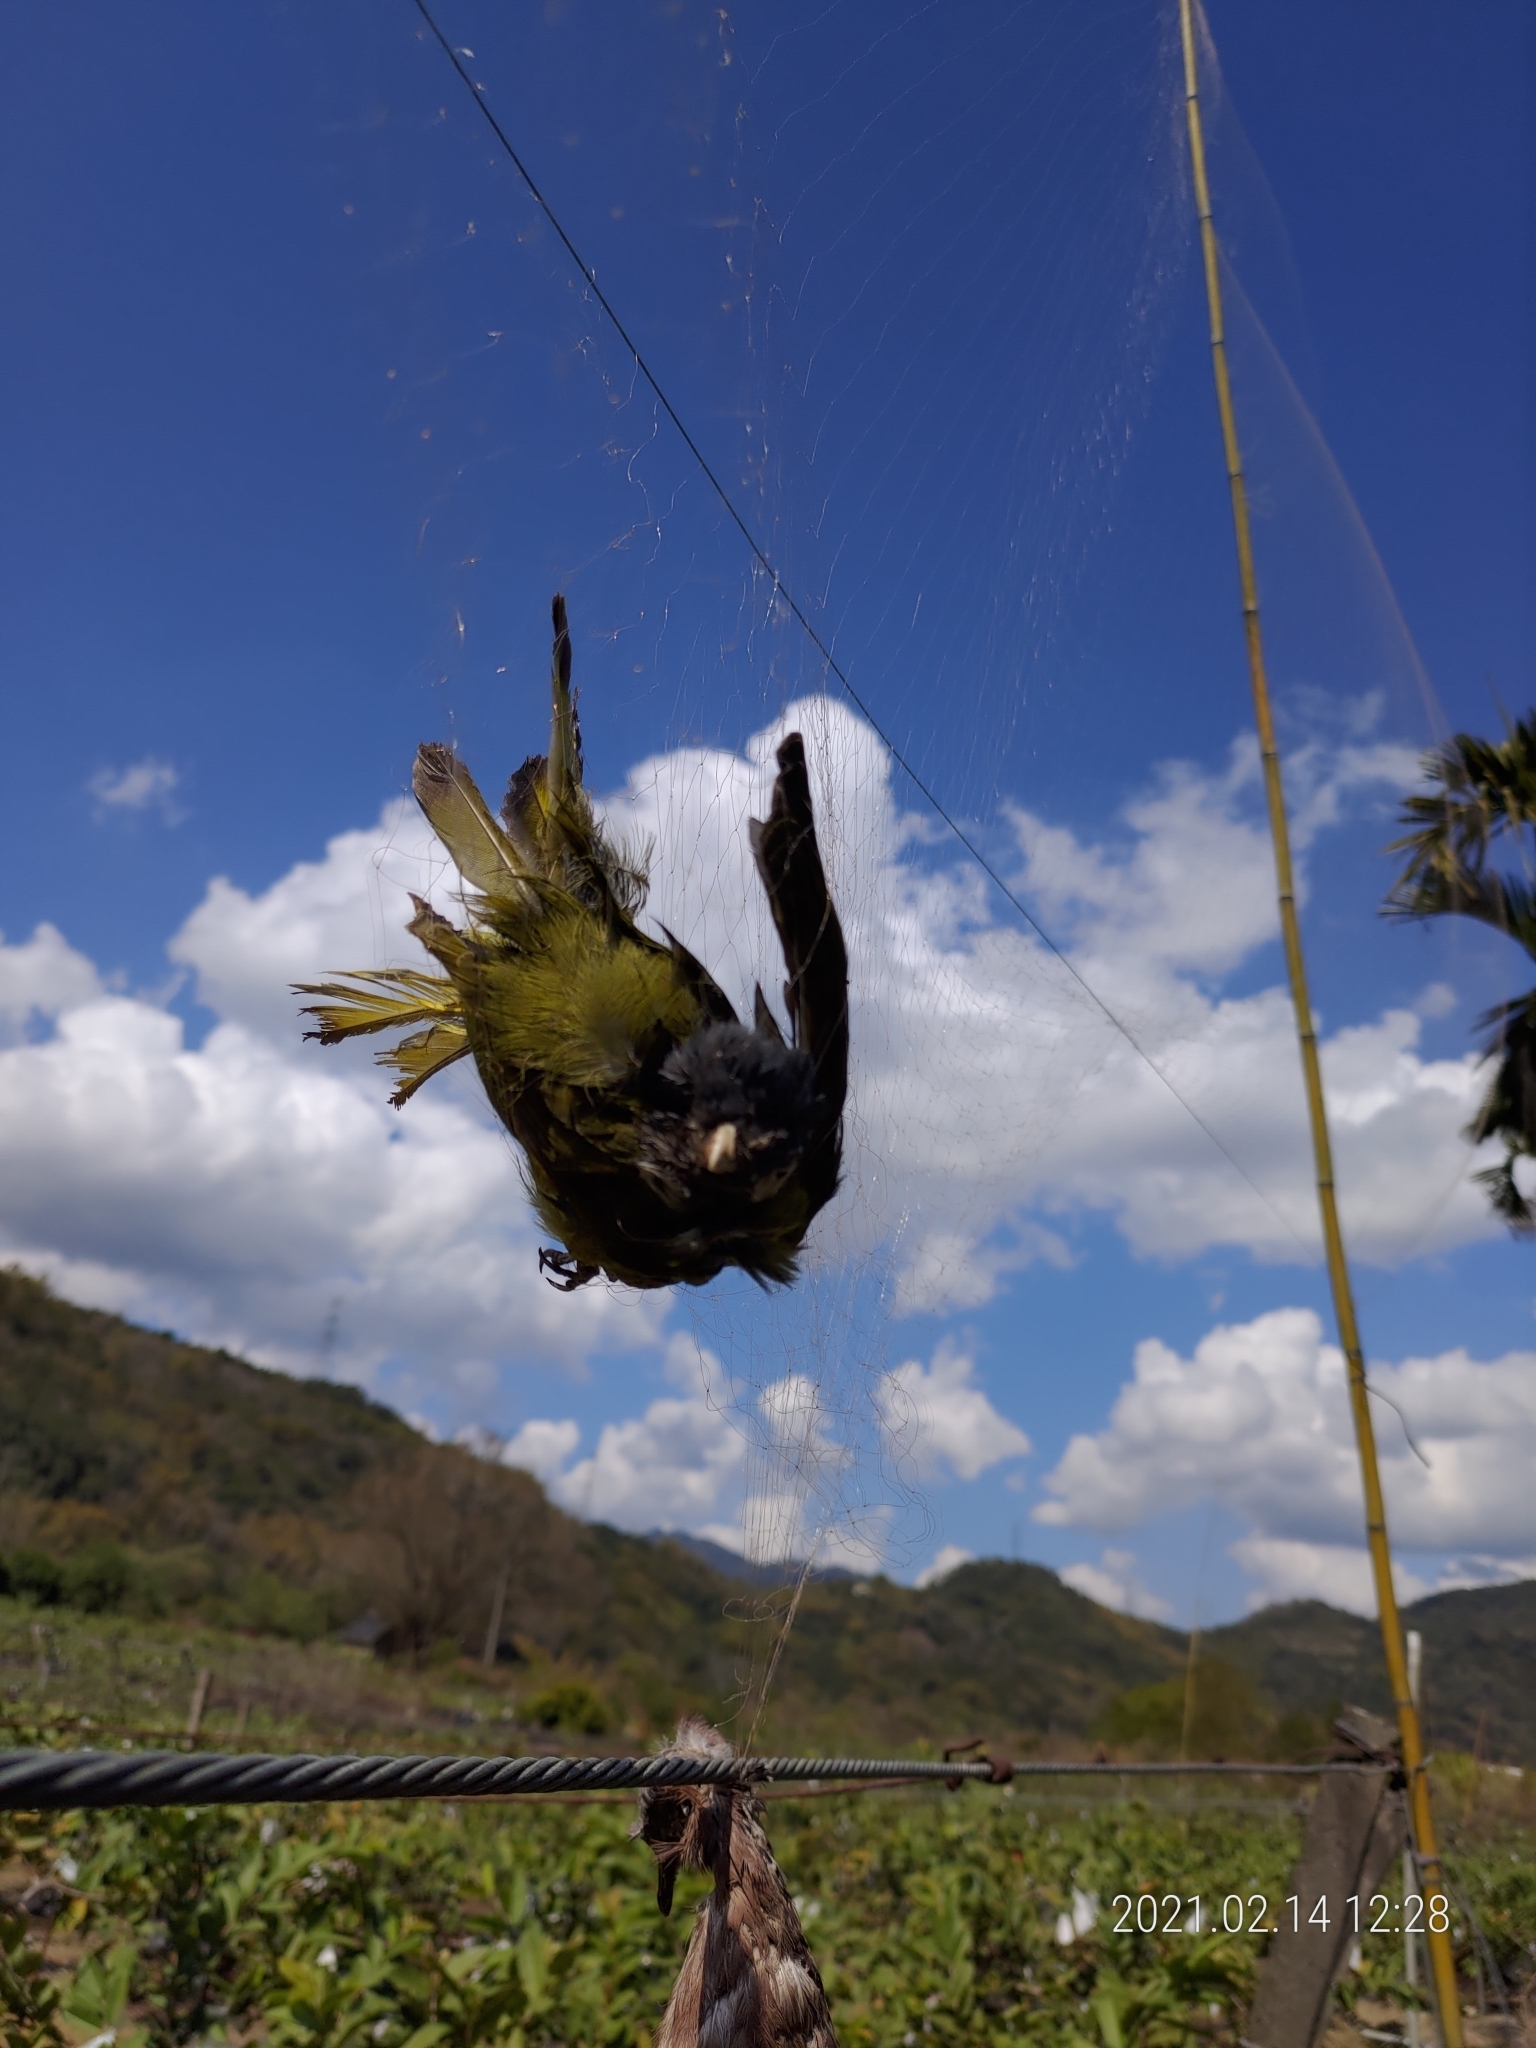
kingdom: Animalia
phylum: Chordata
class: Aves
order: Passeriformes
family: Pycnonotidae
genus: Spizixos
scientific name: Spizixos semitorques
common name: Collared finchbill
